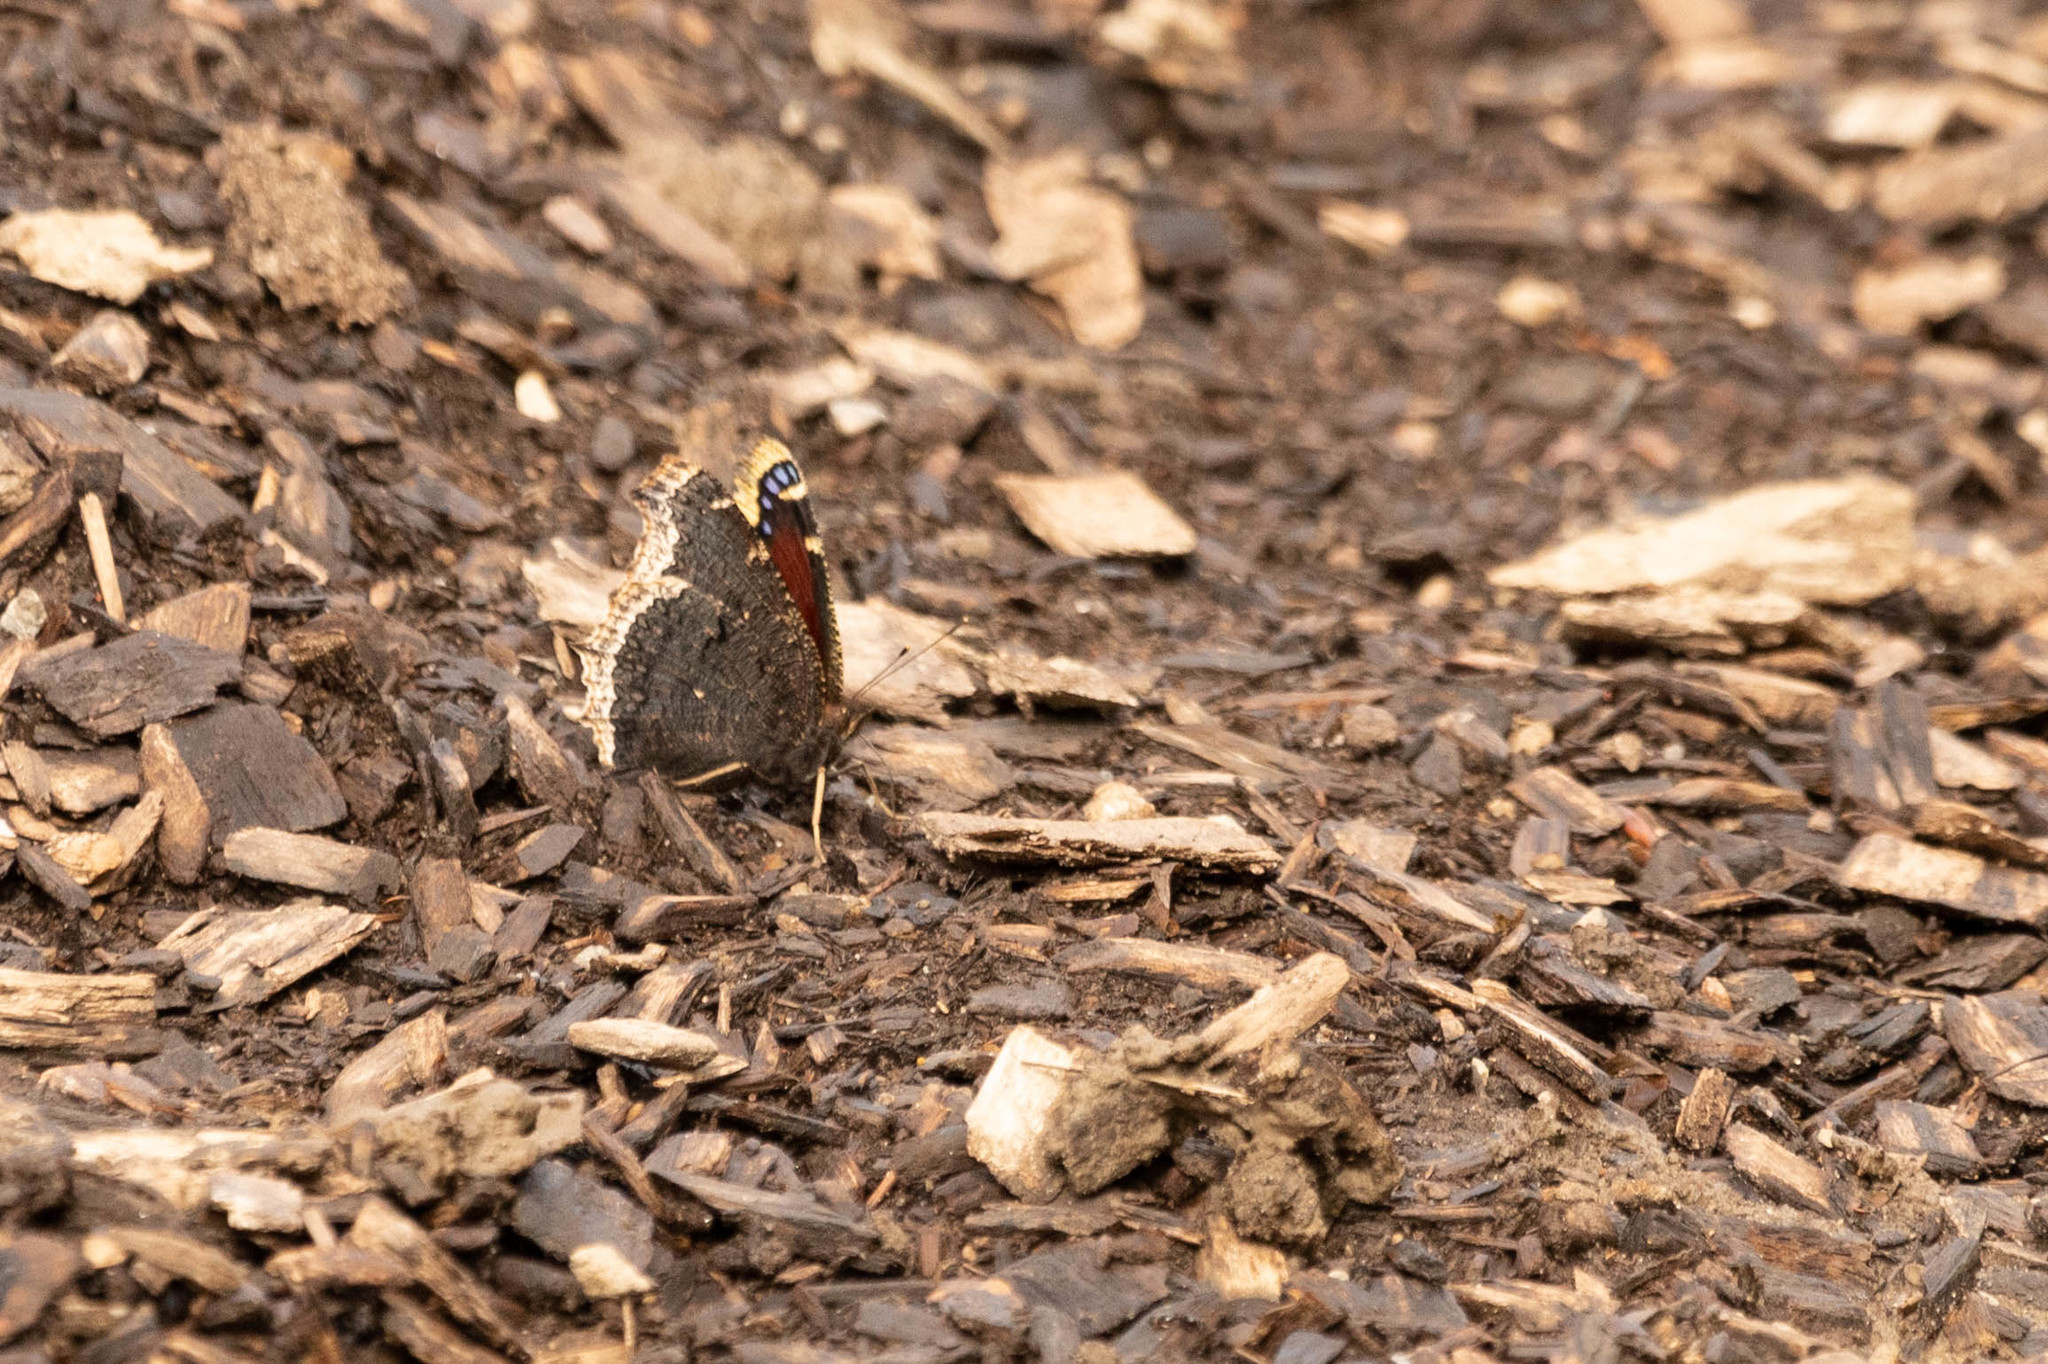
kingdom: Animalia
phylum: Arthropoda
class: Insecta
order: Lepidoptera
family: Nymphalidae
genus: Nymphalis
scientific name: Nymphalis antiopa
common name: Camberwell beauty
